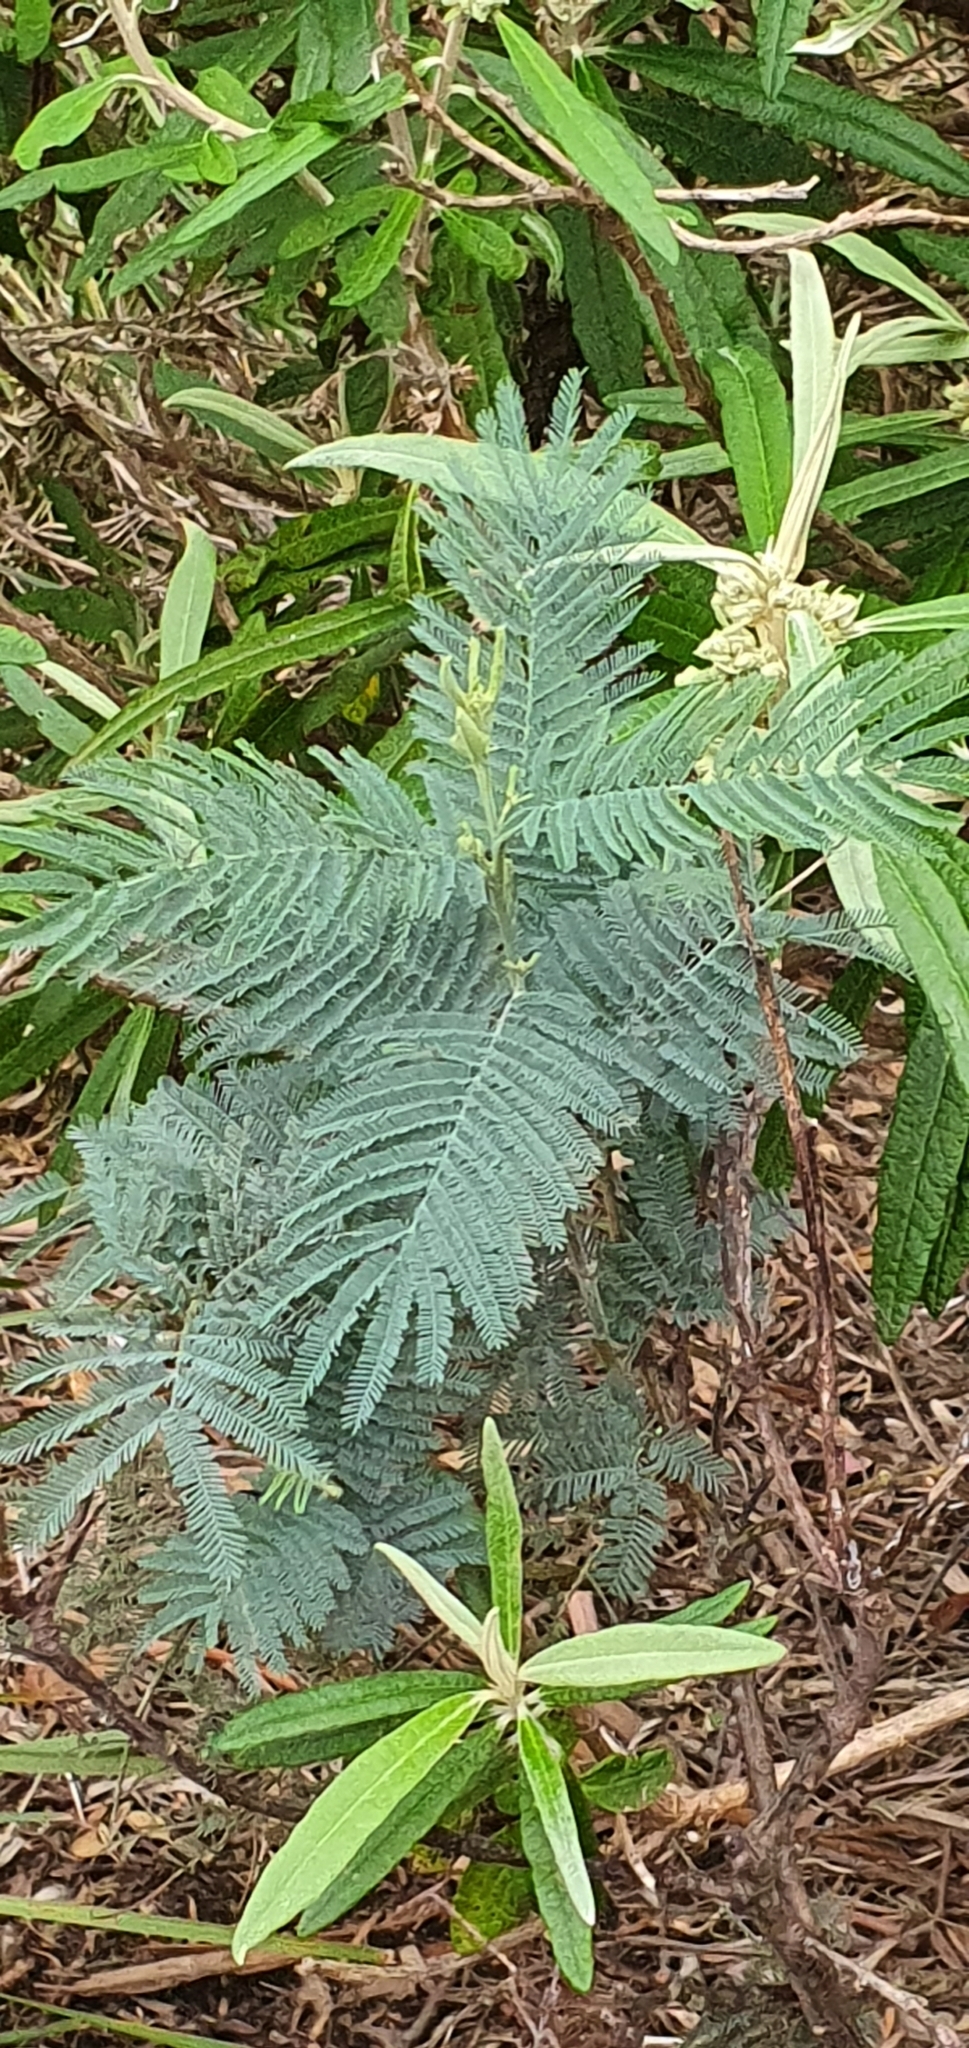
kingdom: Plantae
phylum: Tracheophyta
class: Magnoliopsida
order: Fabales
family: Fabaceae
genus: Acacia
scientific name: Acacia dealbata
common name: Silver wattle
